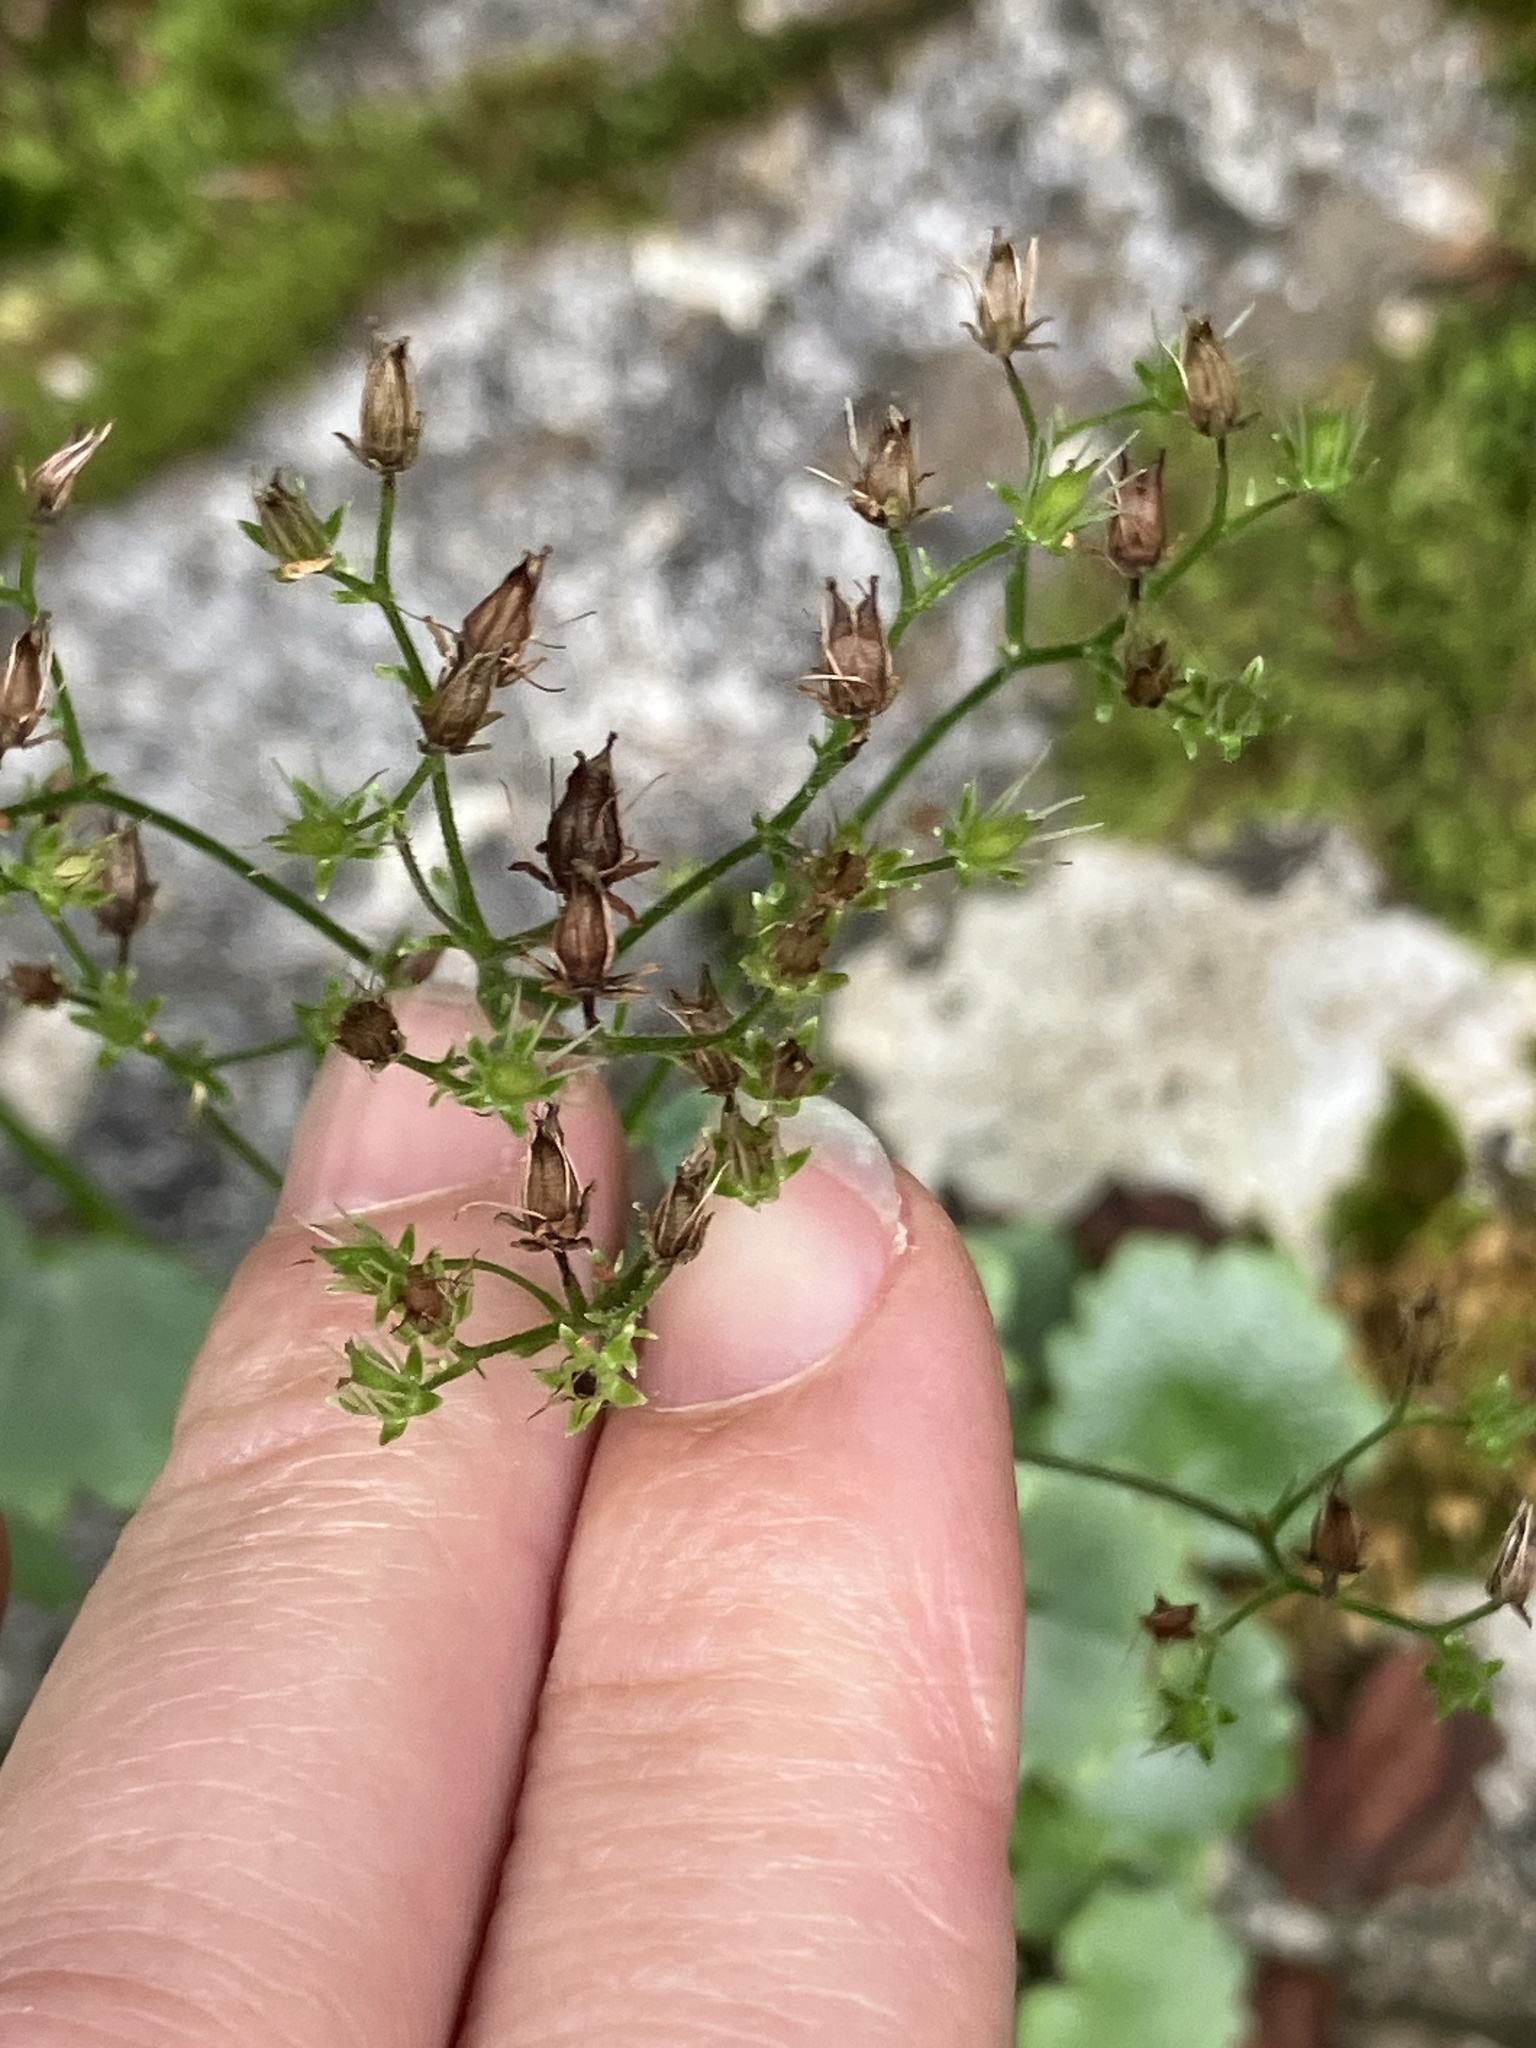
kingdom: Plantae
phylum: Tracheophyta
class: Magnoliopsida
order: Saxifragales
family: Saxifragaceae
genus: Saxifraga
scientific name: Saxifraga rotundifolia
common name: Round-leaved saxifrage
